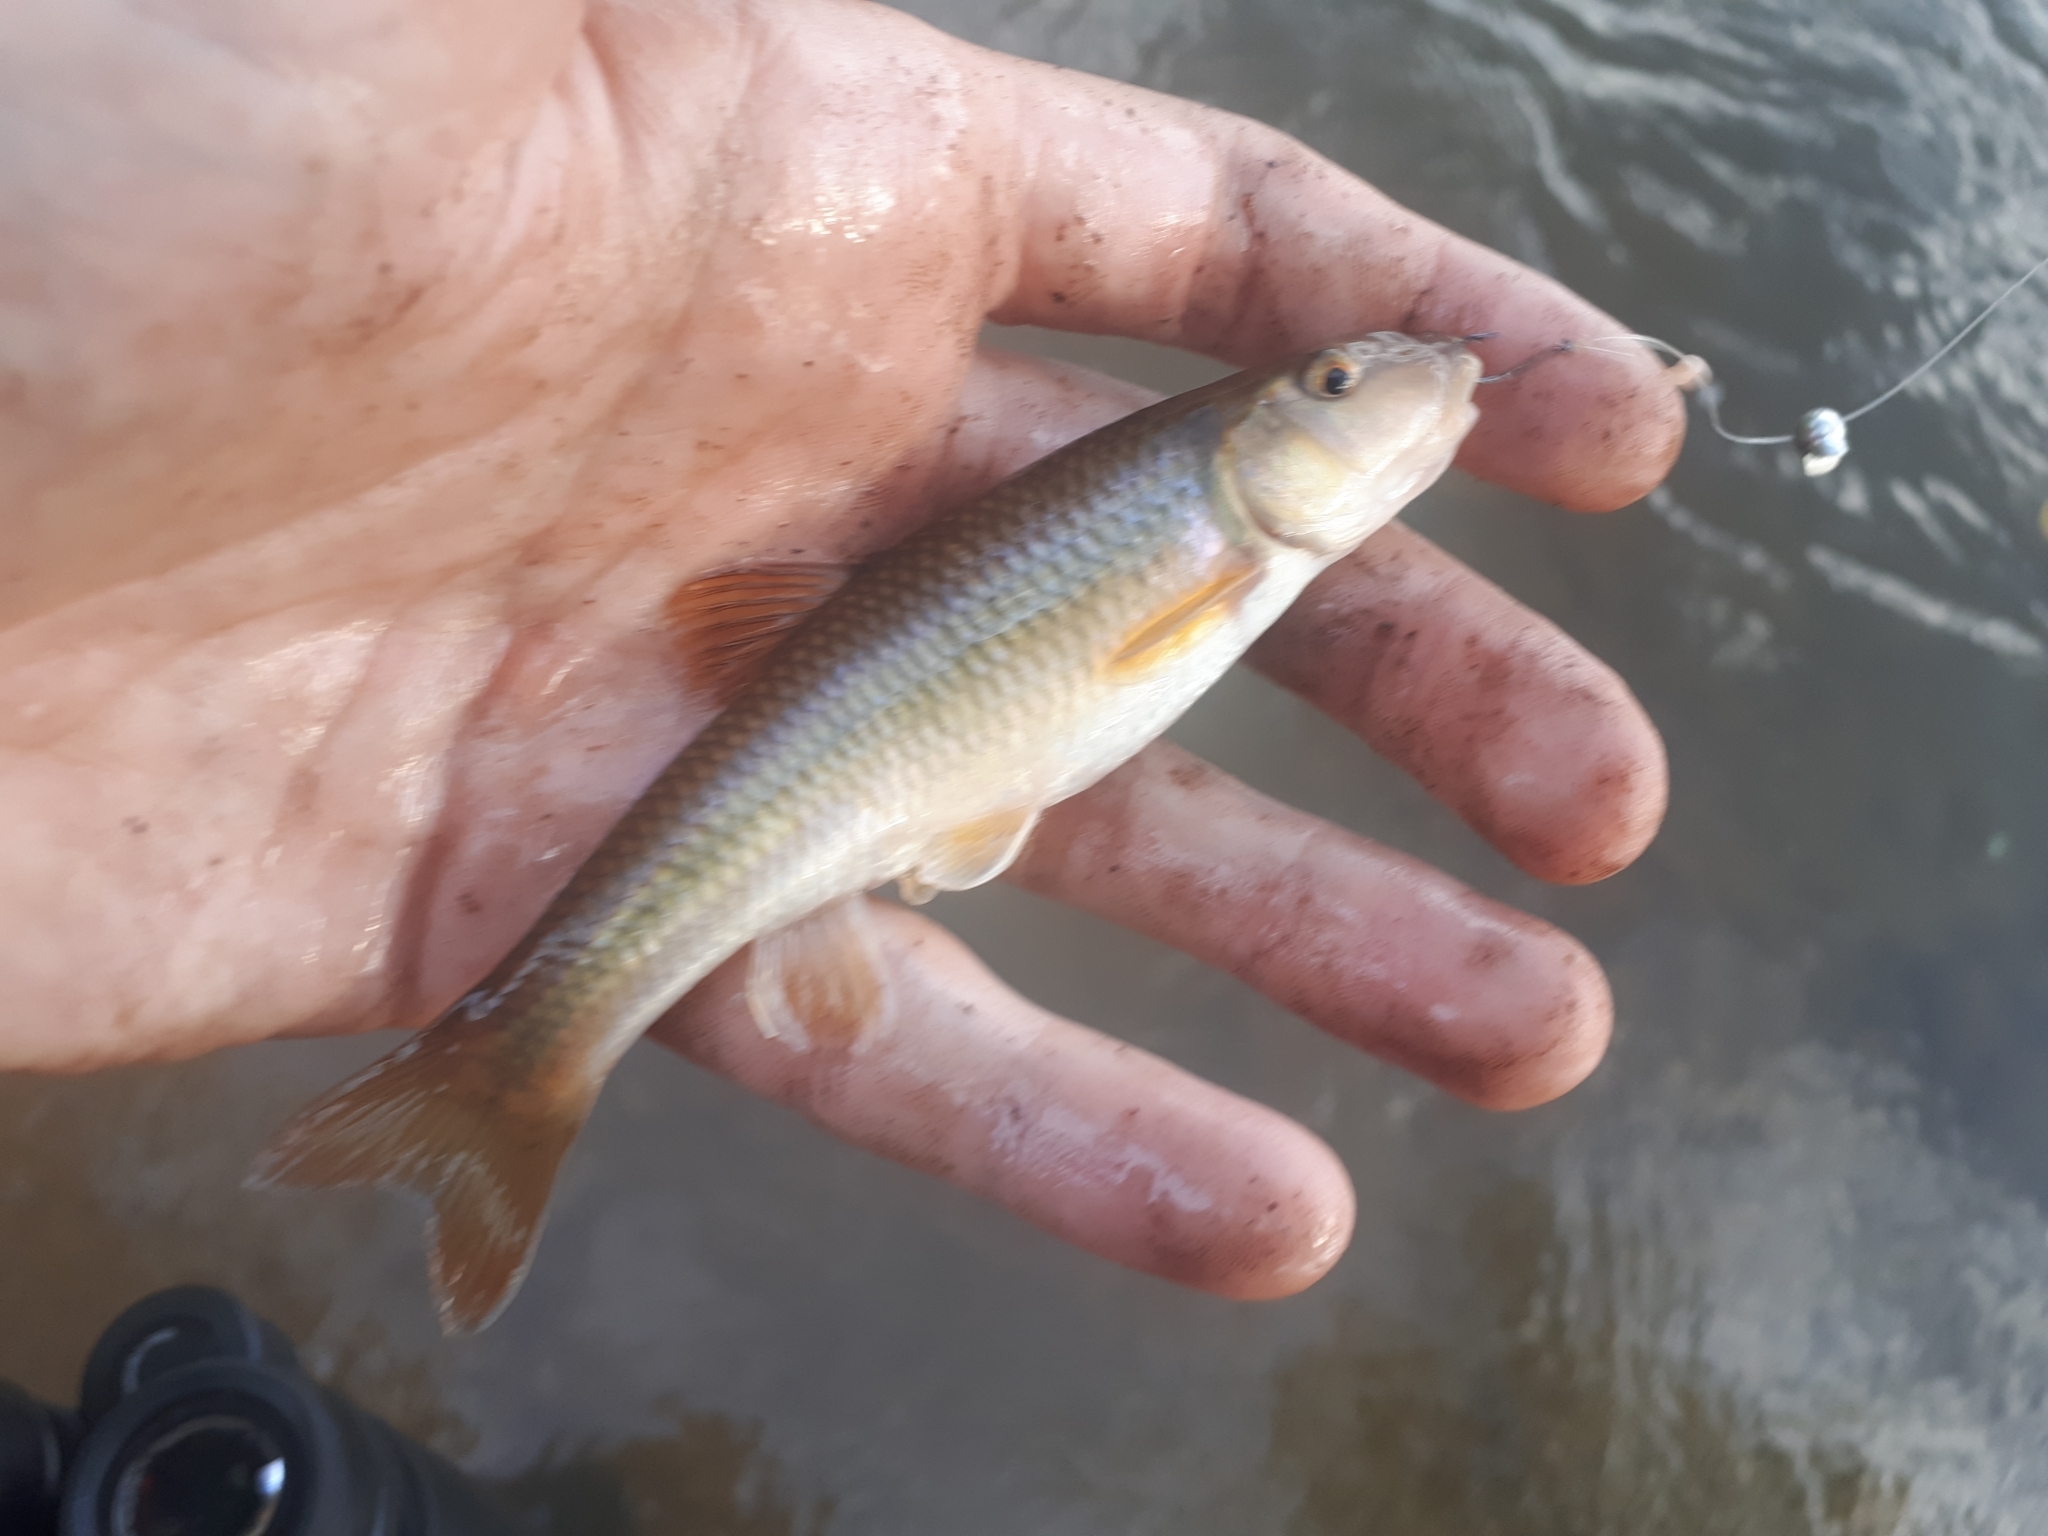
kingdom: Animalia
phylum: Chordata
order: Cypriniformes
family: Cyprinidae
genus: Nocomis
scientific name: Nocomis micropogon
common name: River chub
